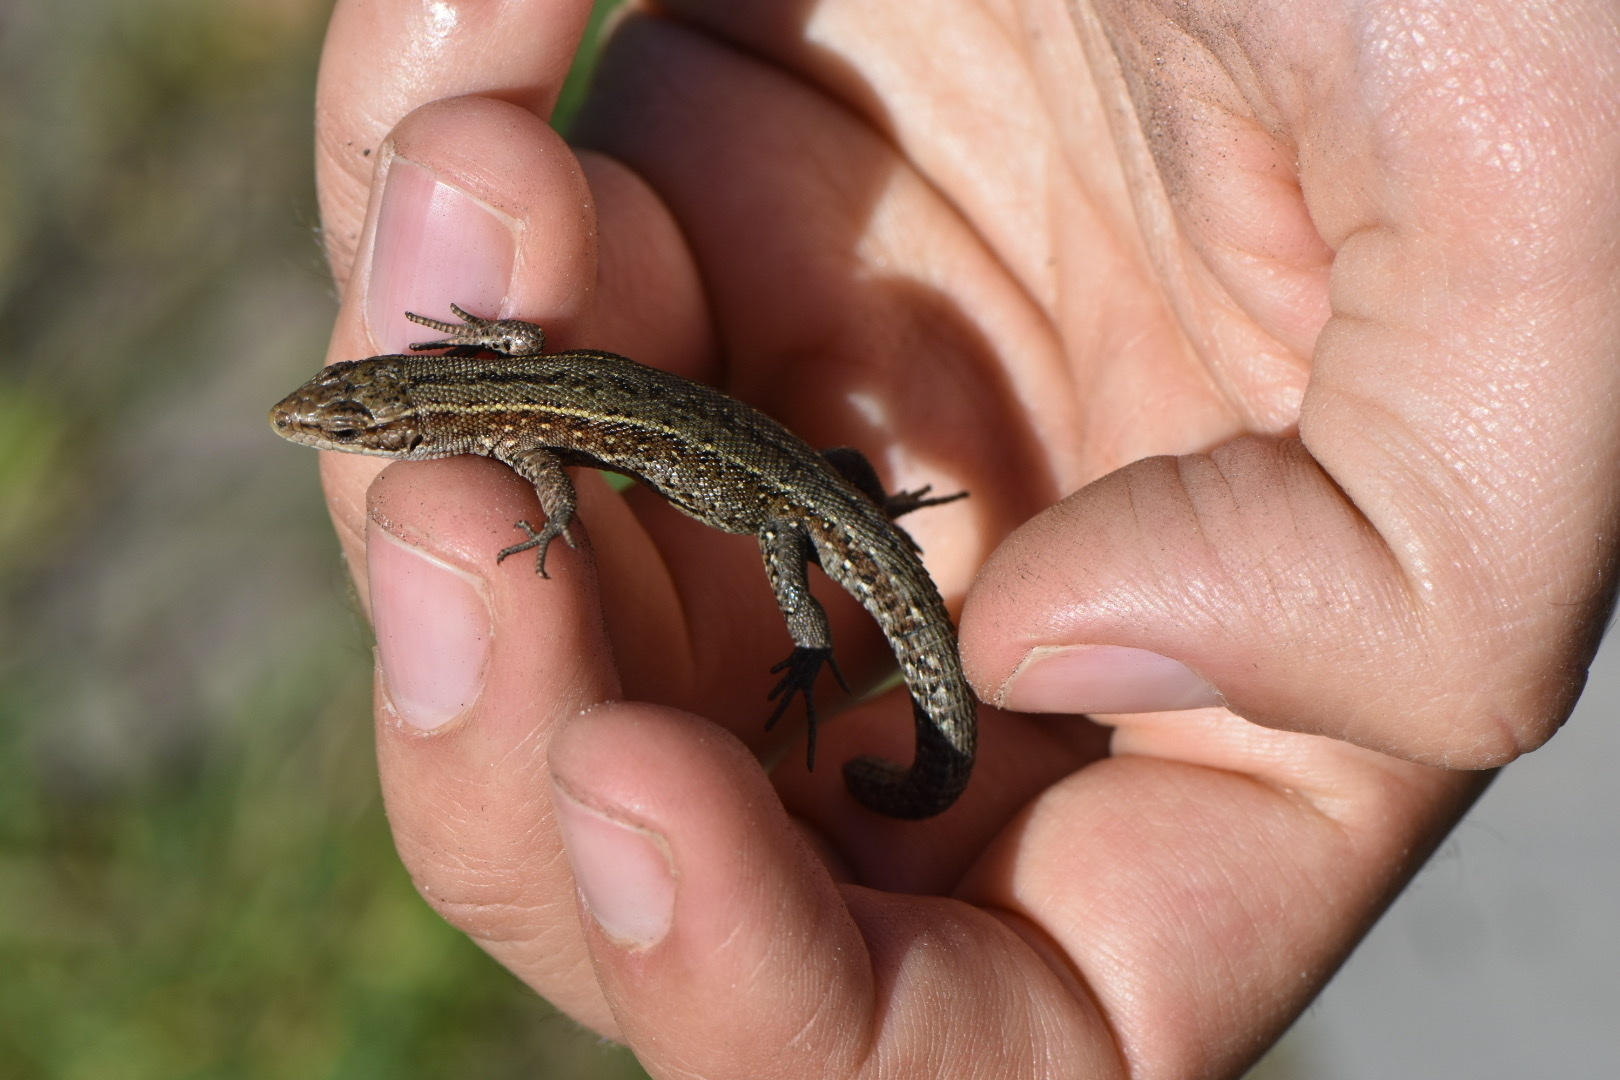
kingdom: Animalia
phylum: Chordata
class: Squamata
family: Lacertidae
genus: Zootoca
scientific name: Zootoca vivipara
